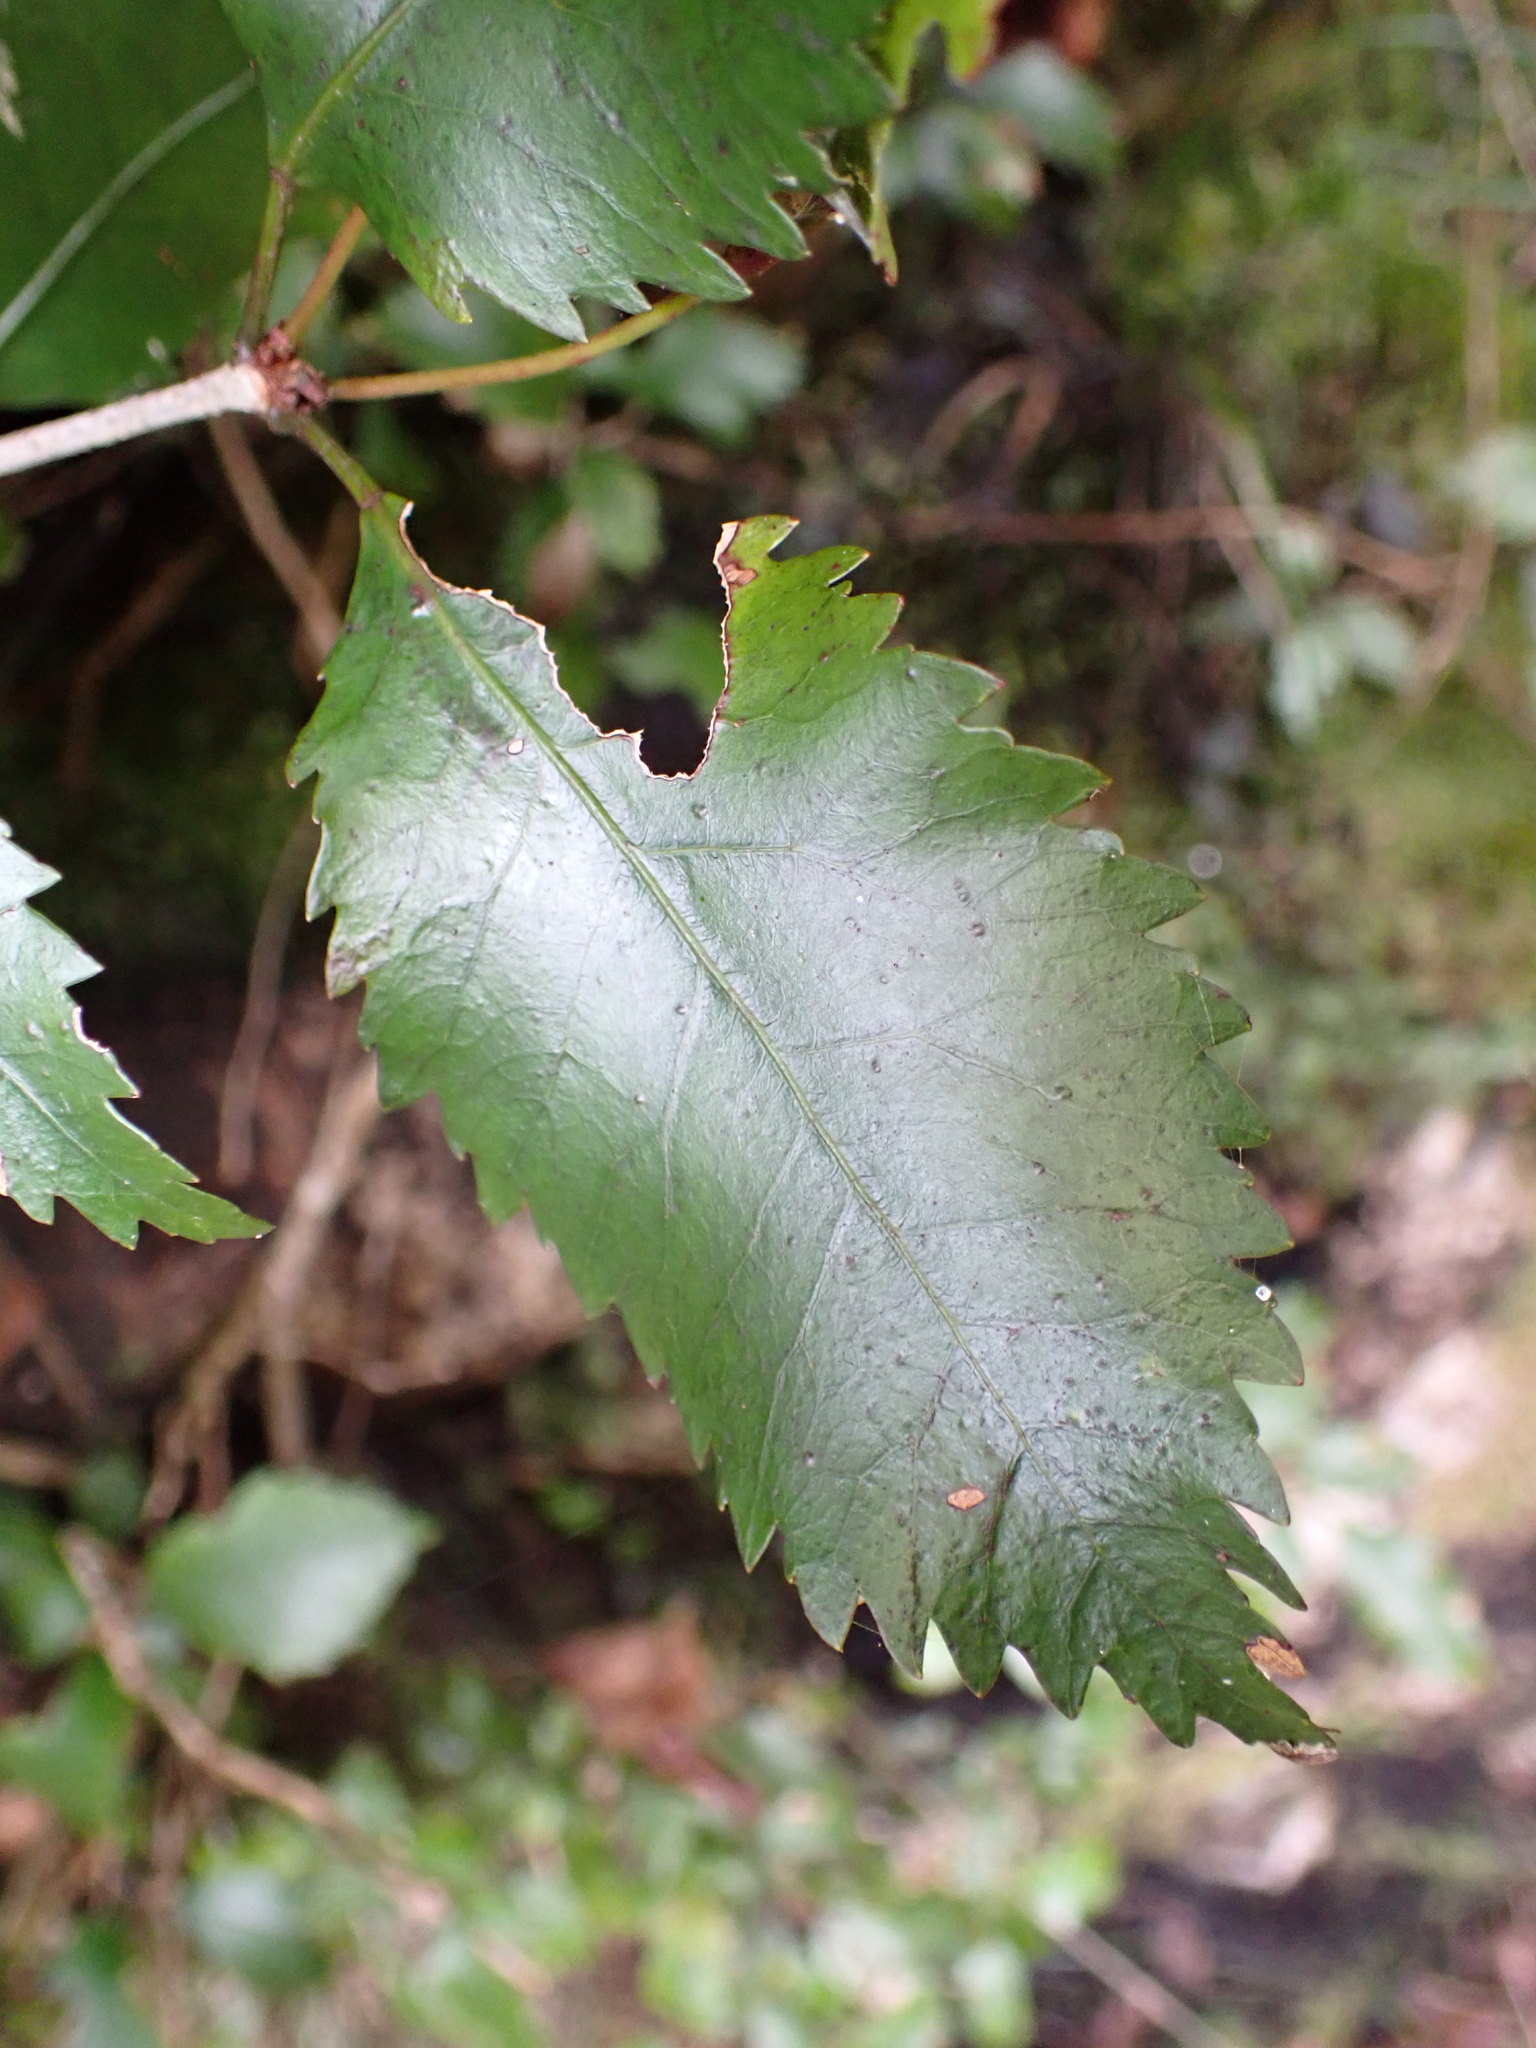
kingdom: Plantae
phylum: Tracheophyta
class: Magnoliopsida
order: Oxalidales
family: Cunoniaceae
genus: Pterophylla
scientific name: Pterophylla racemosa
